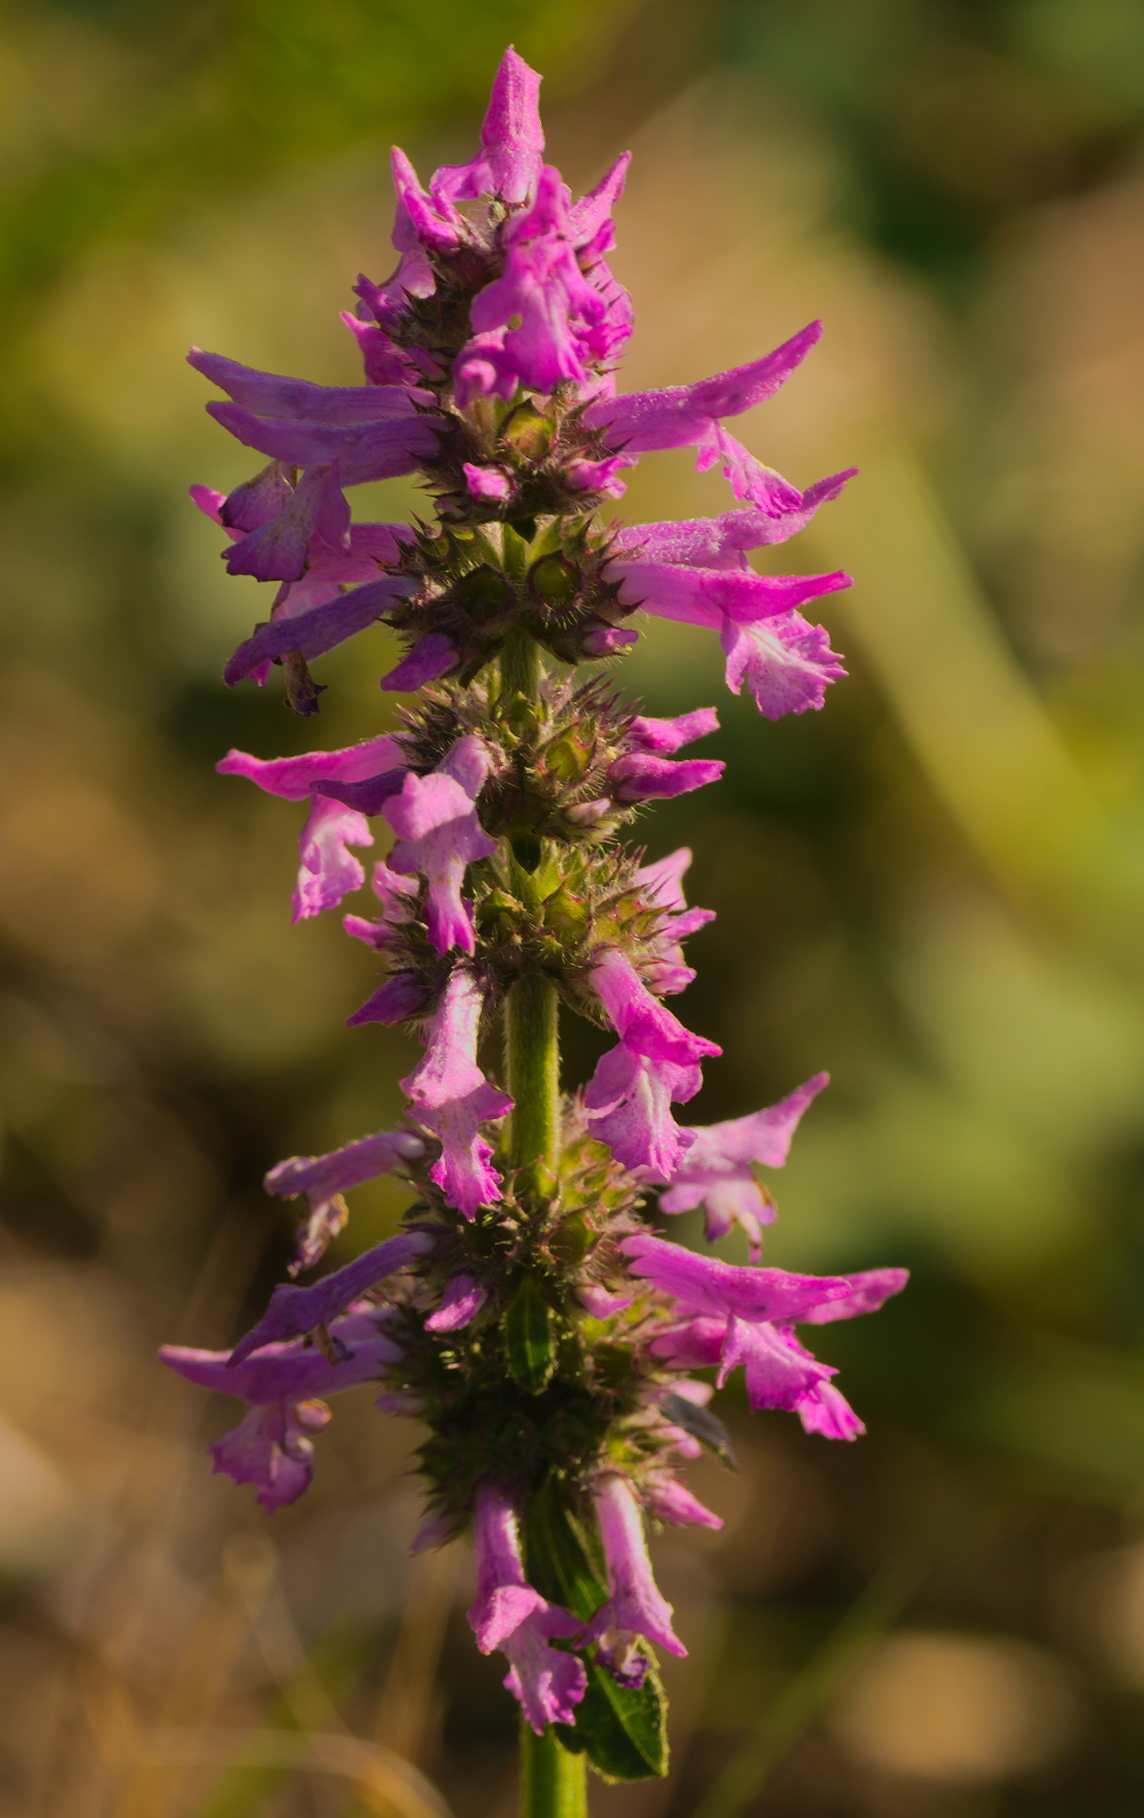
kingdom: Plantae
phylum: Tracheophyta
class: Magnoliopsida
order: Lamiales
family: Lamiaceae
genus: Betonica
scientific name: Betonica officinalis
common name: Bishop's-wort
